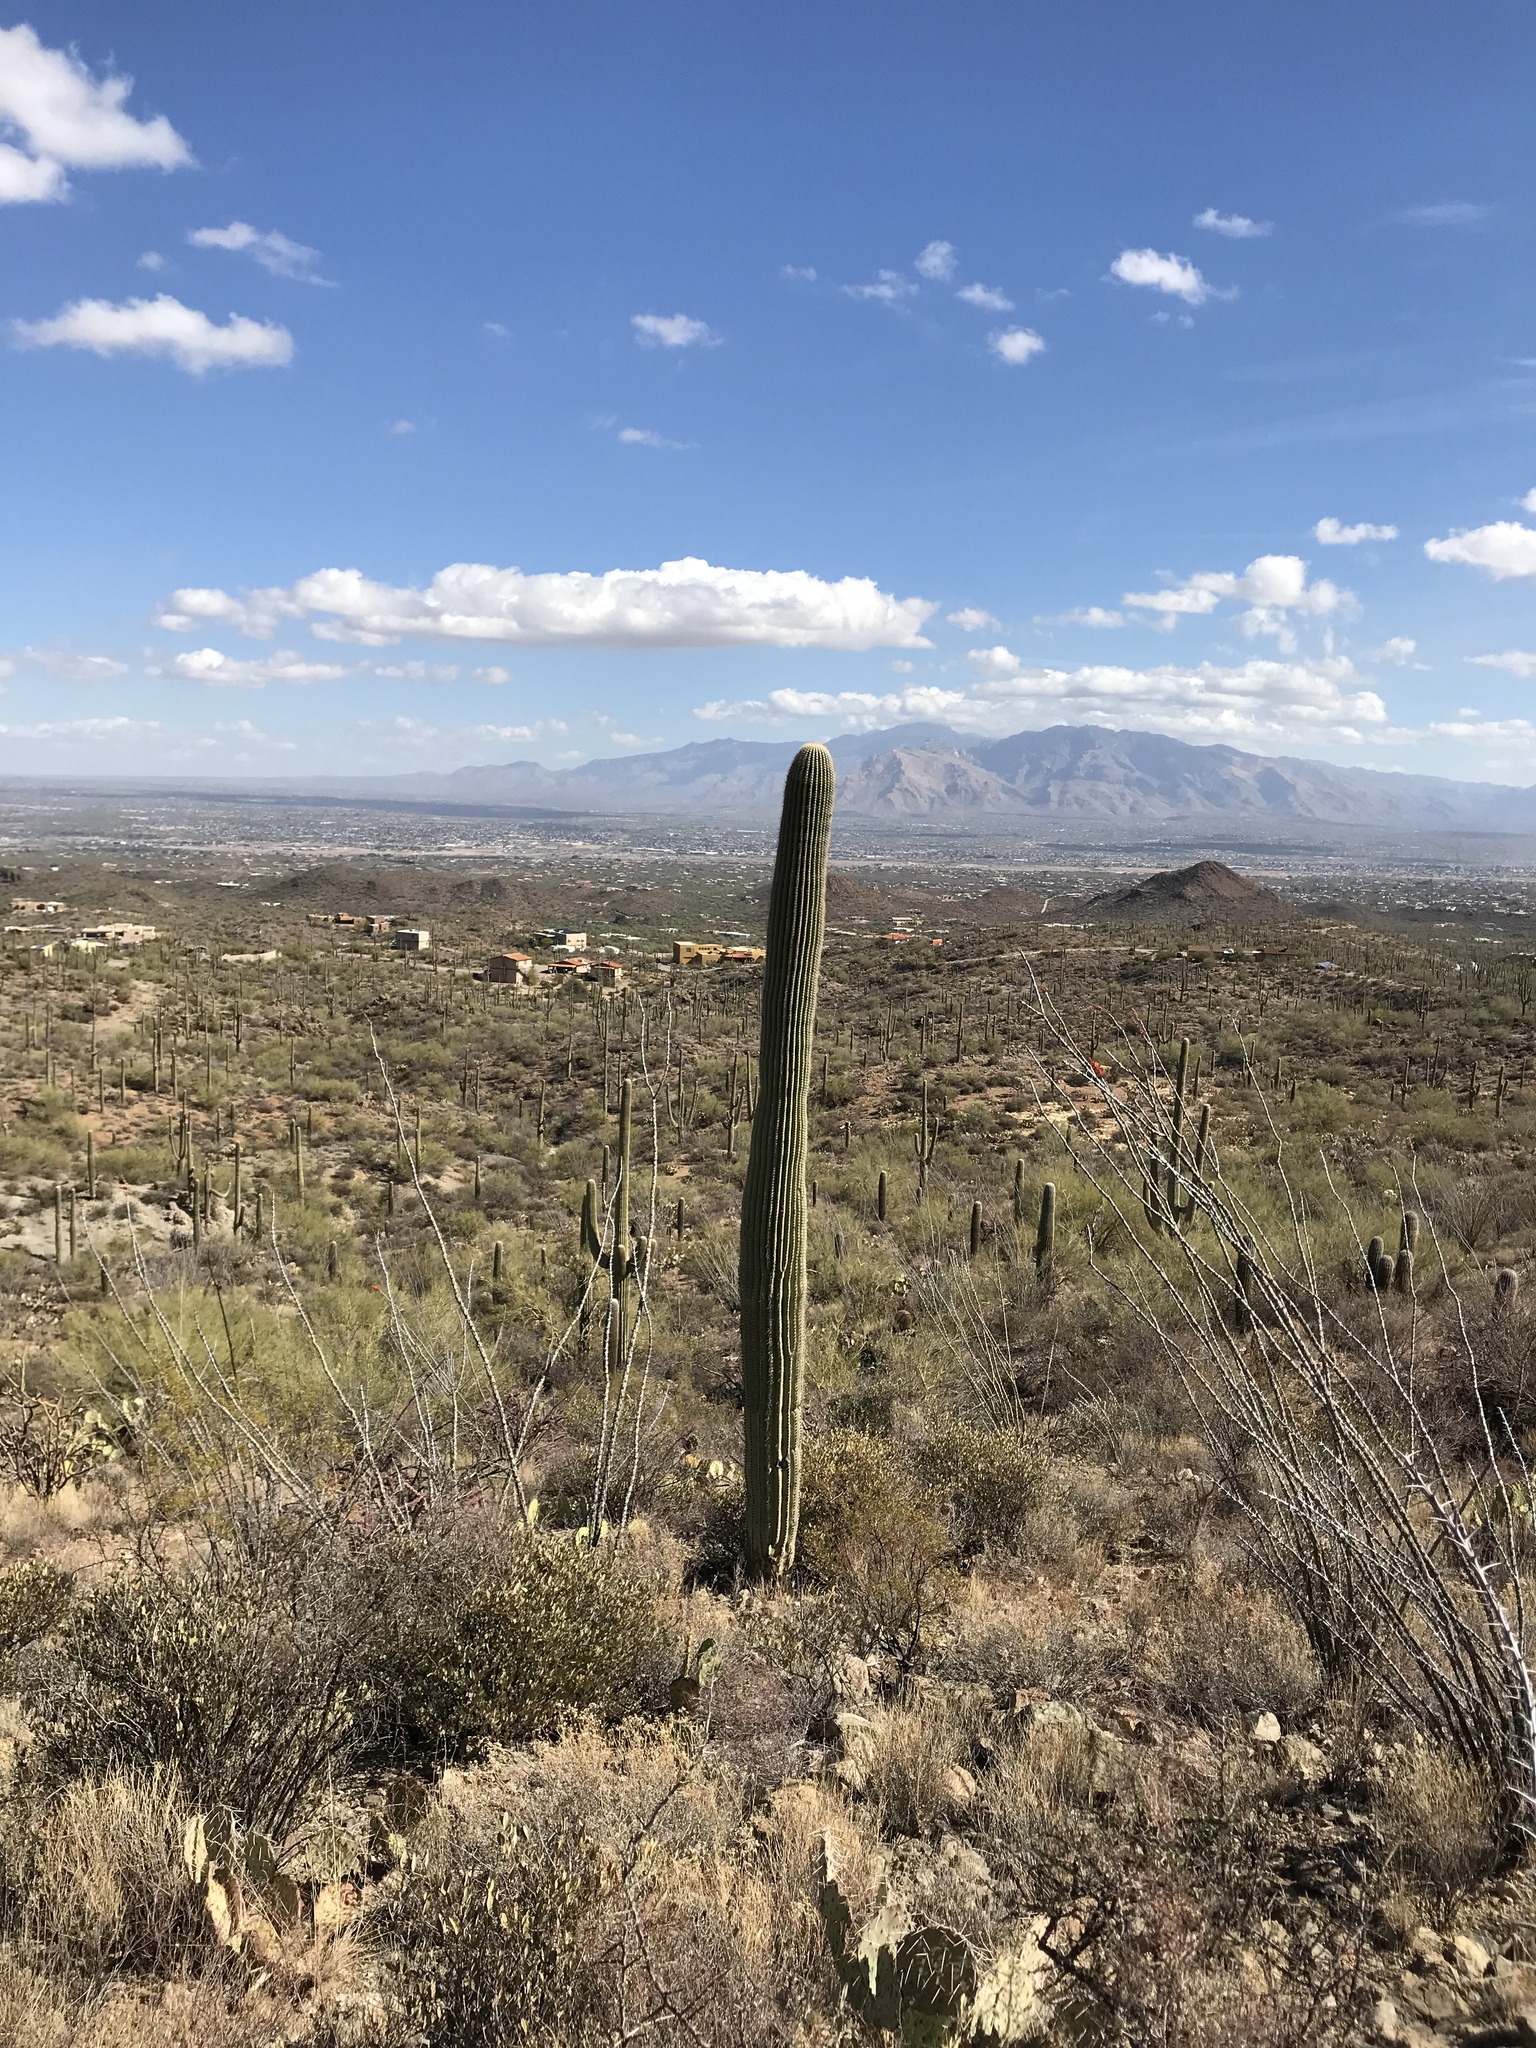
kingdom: Plantae
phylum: Tracheophyta
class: Magnoliopsida
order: Caryophyllales
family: Cactaceae
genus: Carnegiea
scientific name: Carnegiea gigantea
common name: Saguaro
